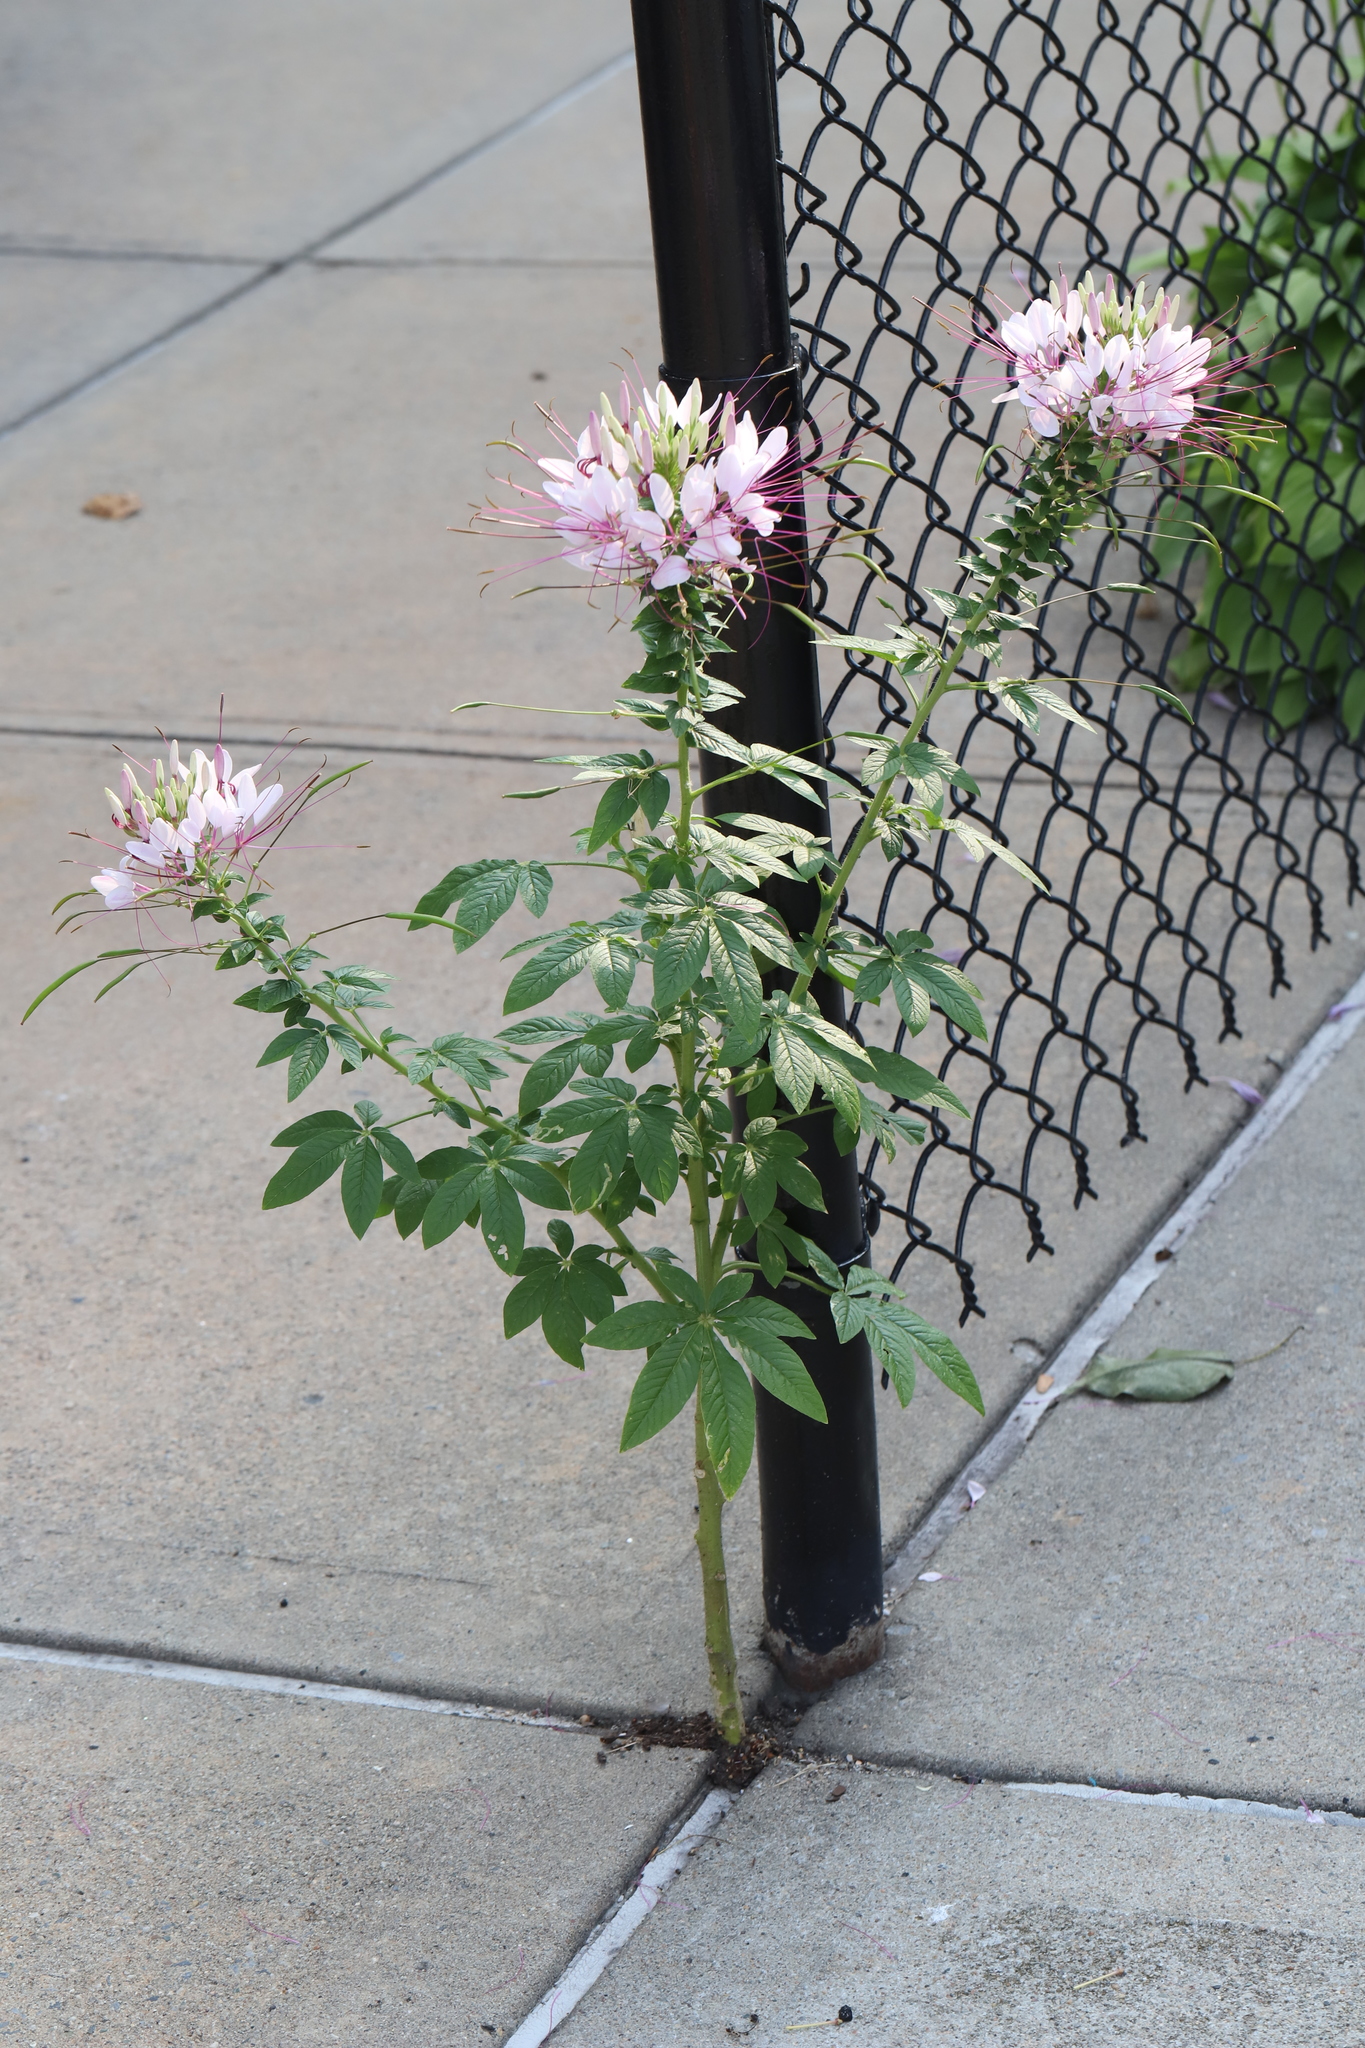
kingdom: Plantae
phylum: Tracheophyta
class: Magnoliopsida
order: Brassicales
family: Cleomaceae
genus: Tarenaya
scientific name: Tarenaya houtteana
